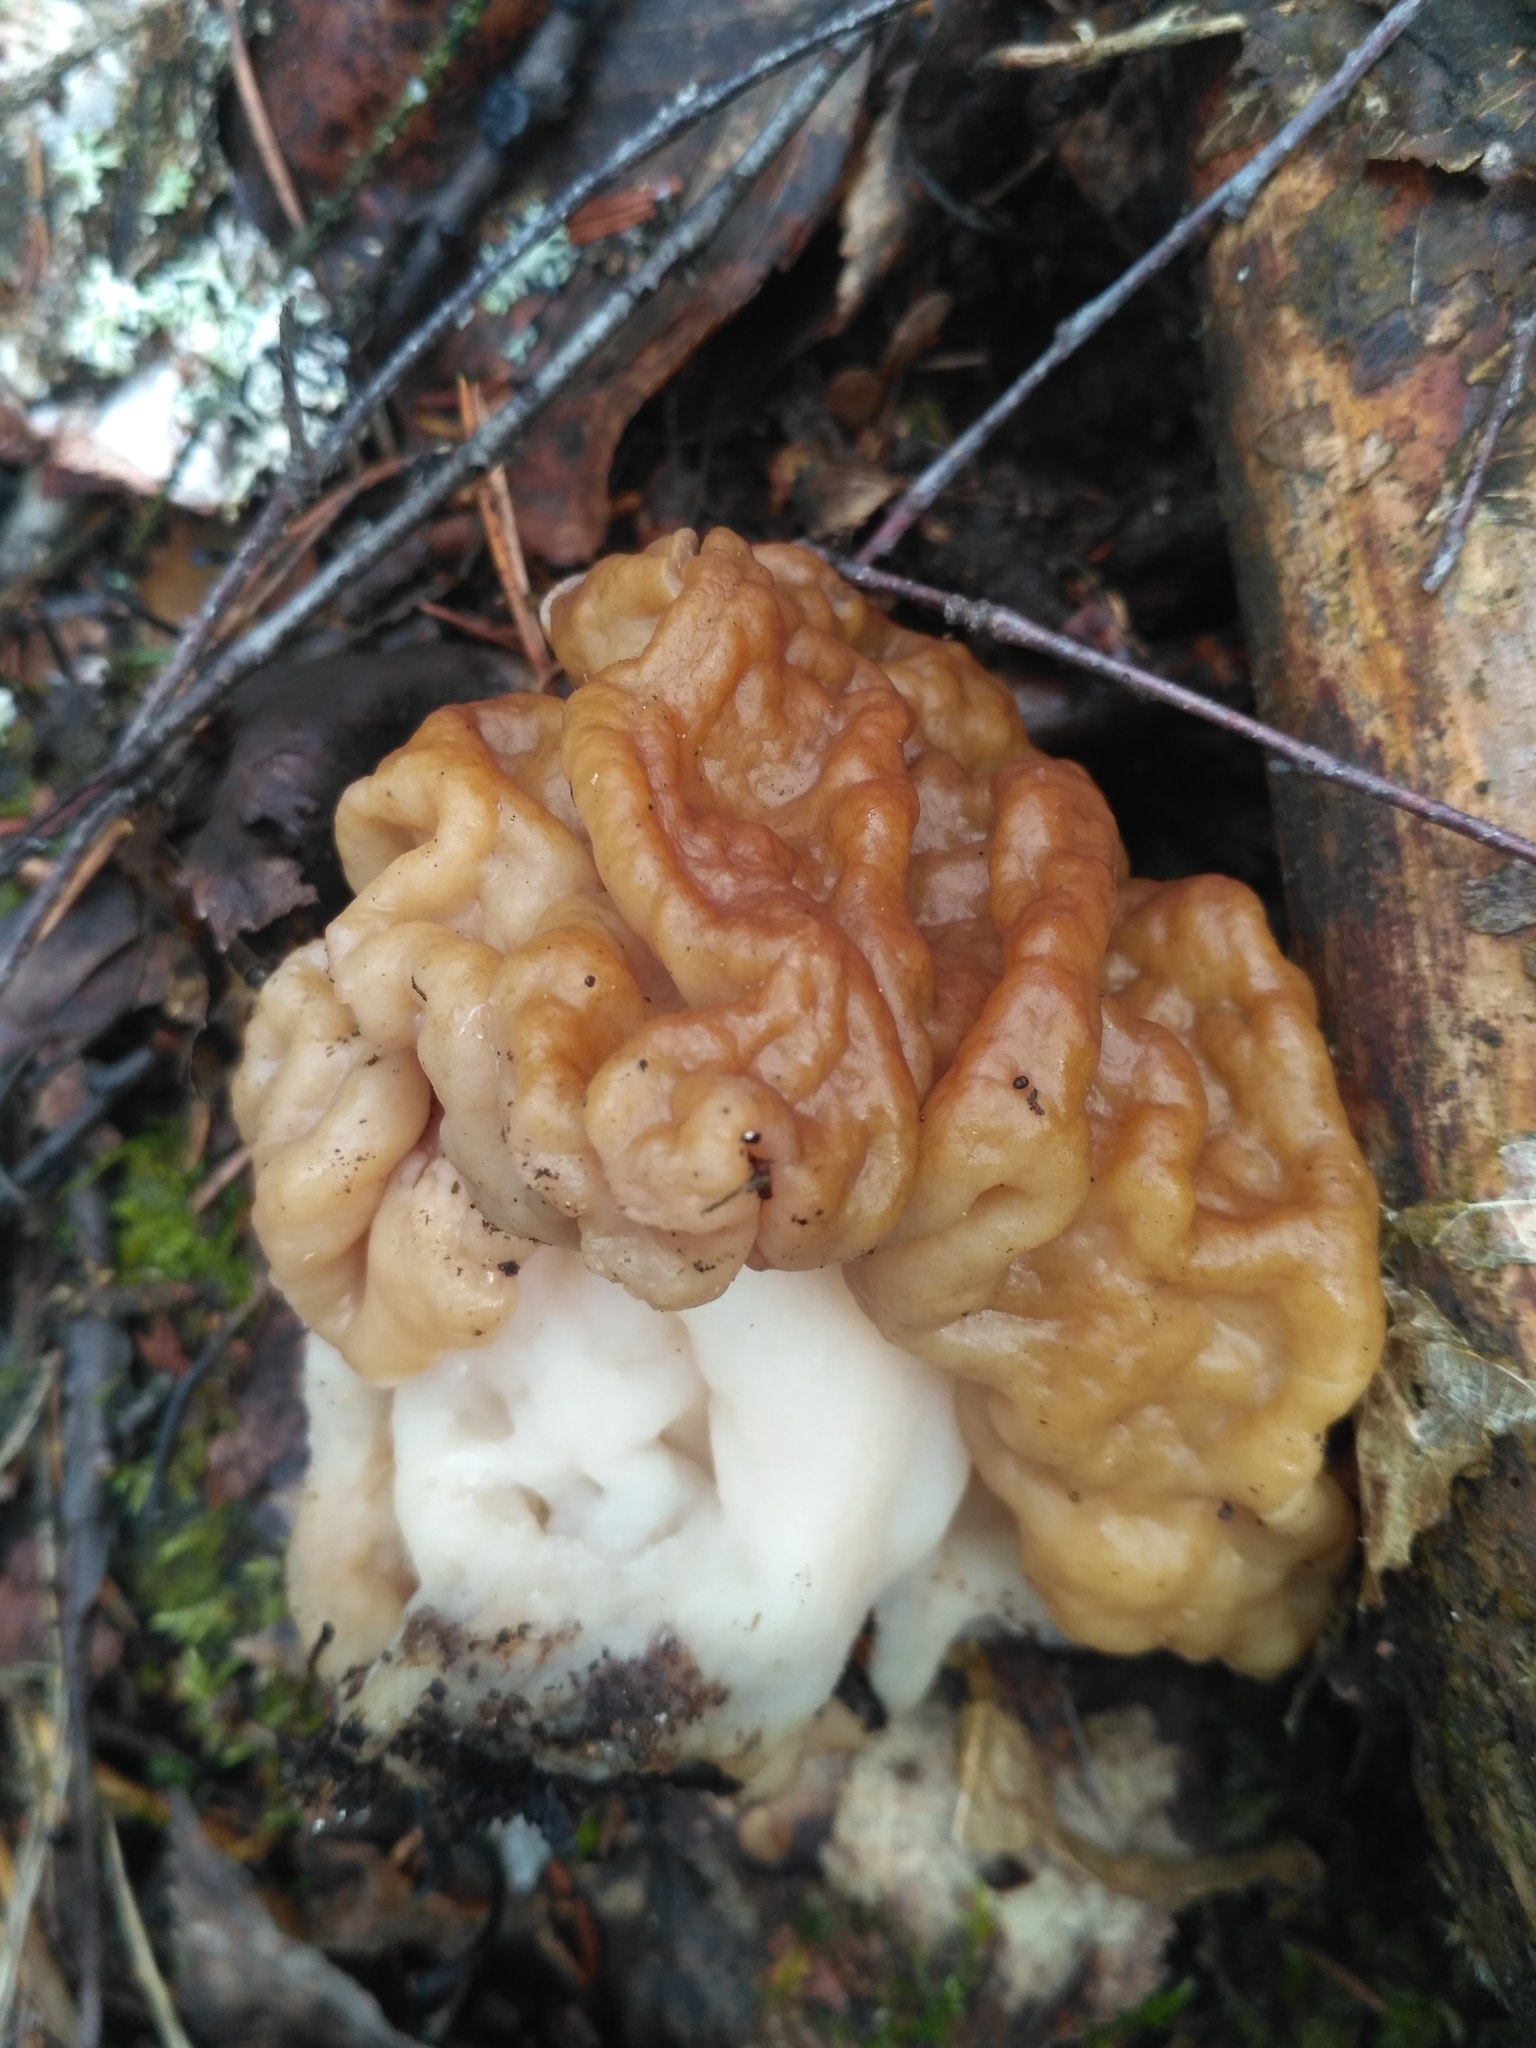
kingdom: Fungi
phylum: Ascomycota
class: Pezizomycetes
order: Pezizales
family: Discinaceae
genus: Gyromitra
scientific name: Gyromitra gigas
